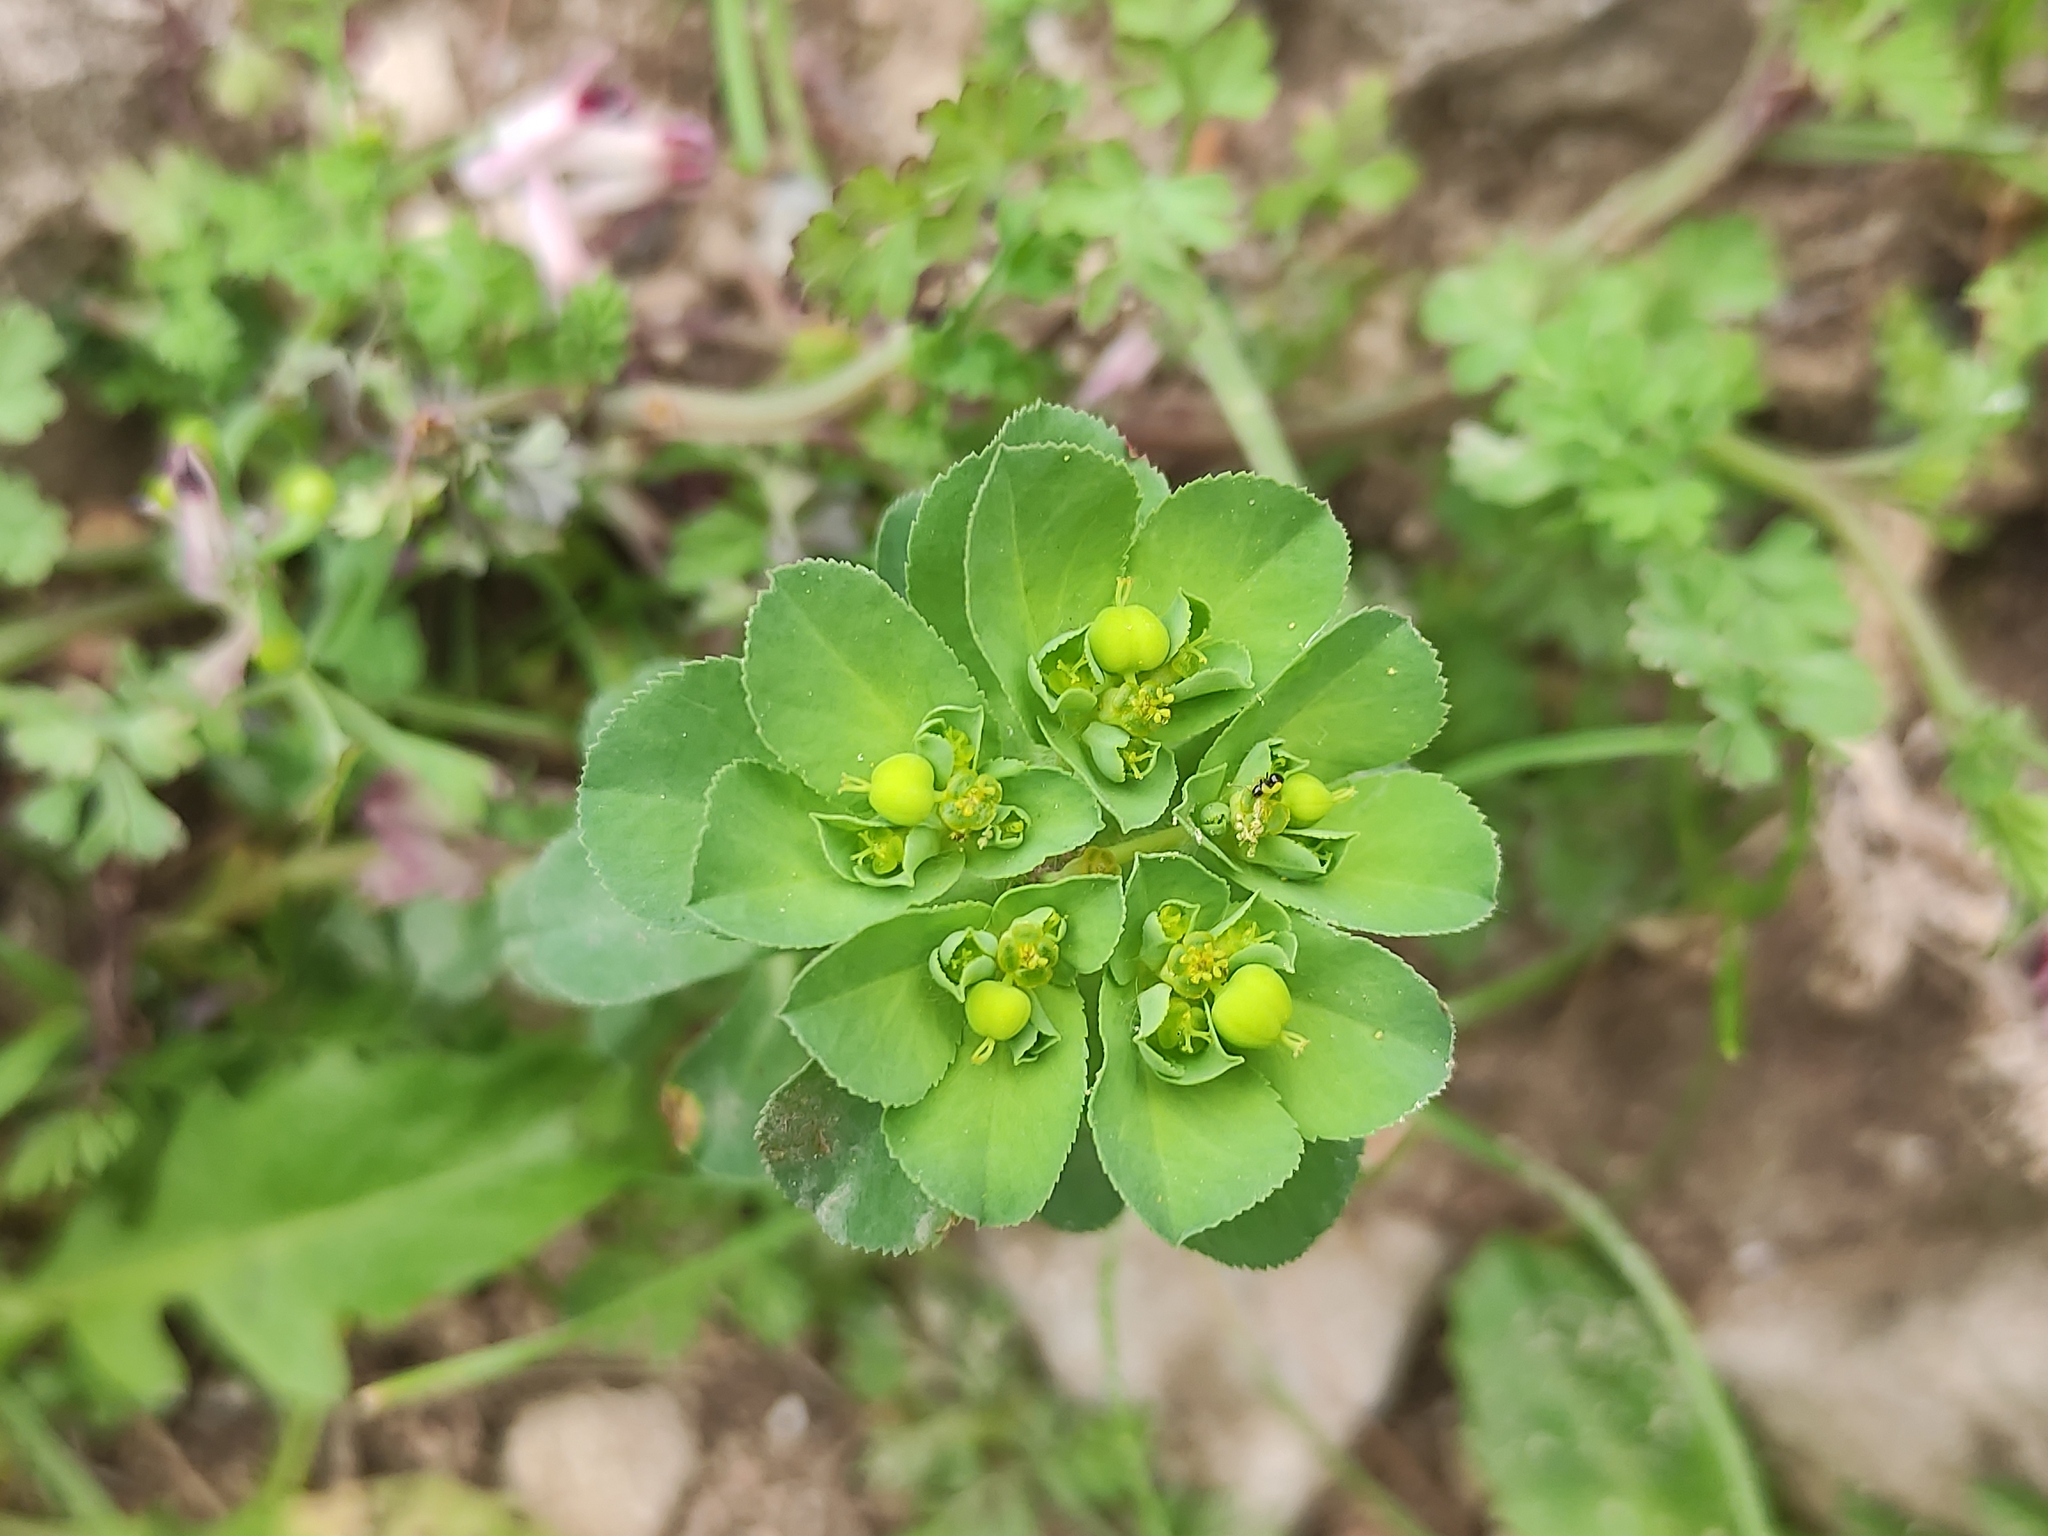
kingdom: Plantae
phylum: Tracheophyta
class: Magnoliopsida
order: Malpighiales
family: Euphorbiaceae
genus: Euphorbia
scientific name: Euphorbia helioscopia
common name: Sun spurge
